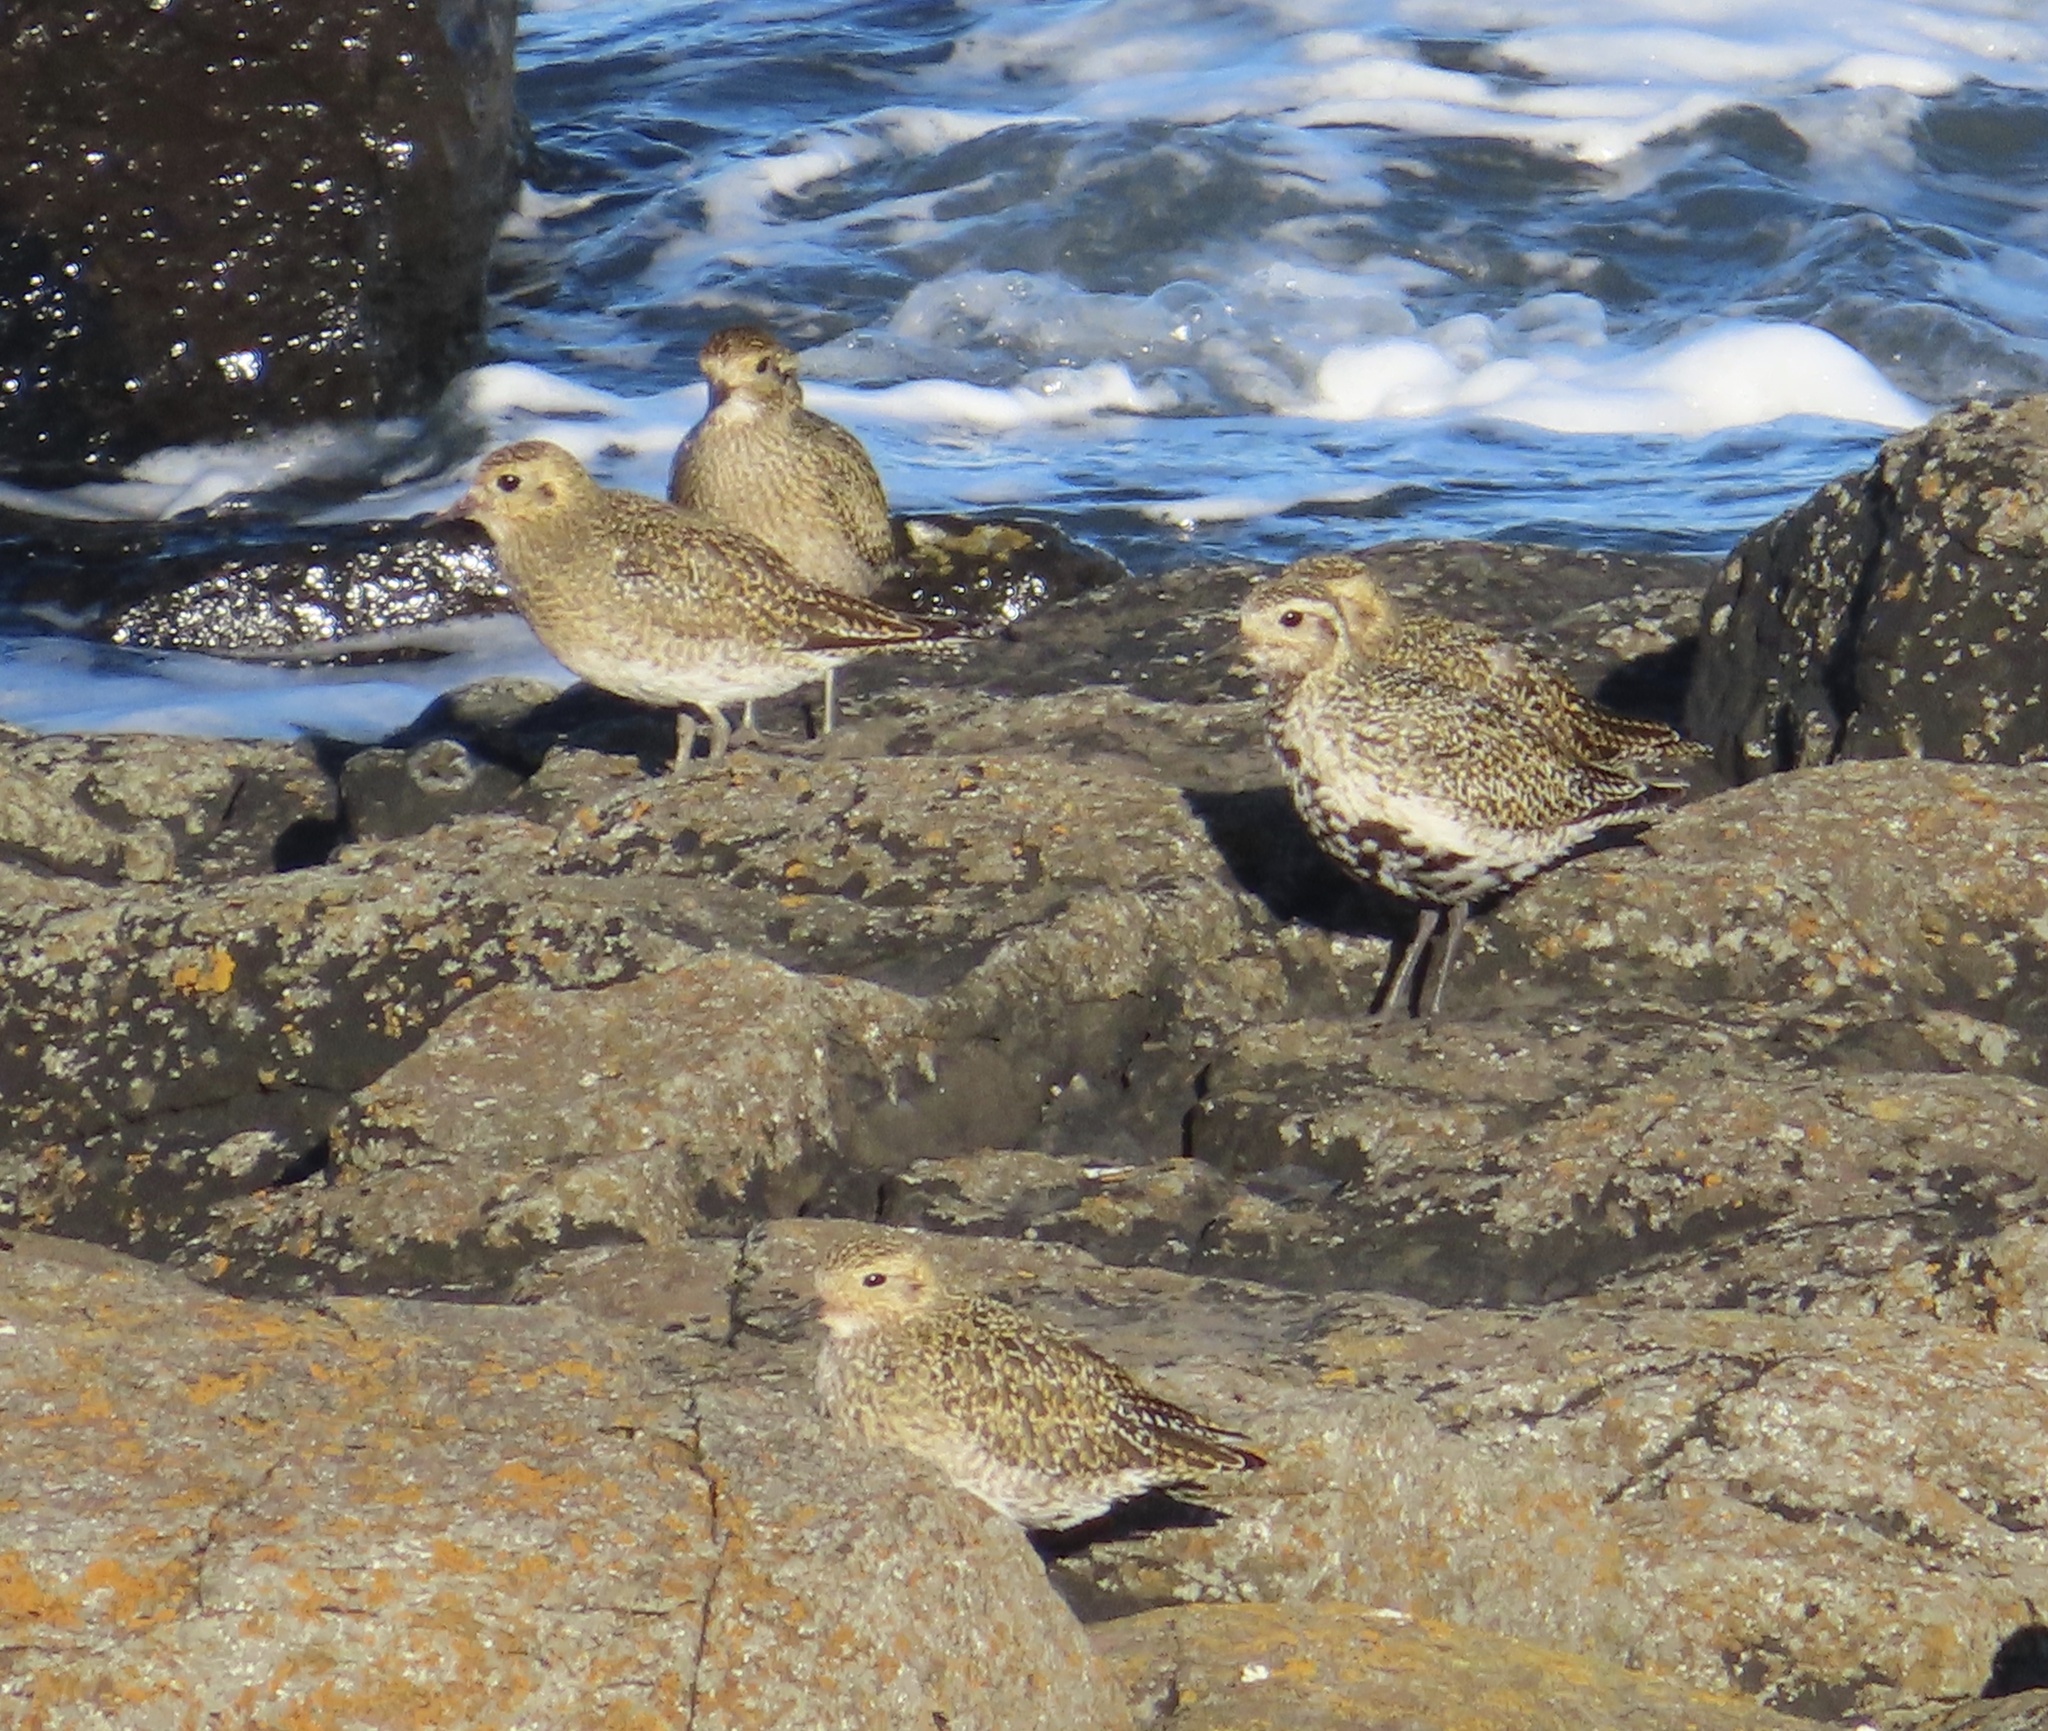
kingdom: Animalia
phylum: Chordata
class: Aves
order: Charadriiformes
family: Charadriidae
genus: Pluvialis
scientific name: Pluvialis apricaria
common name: European golden plover
